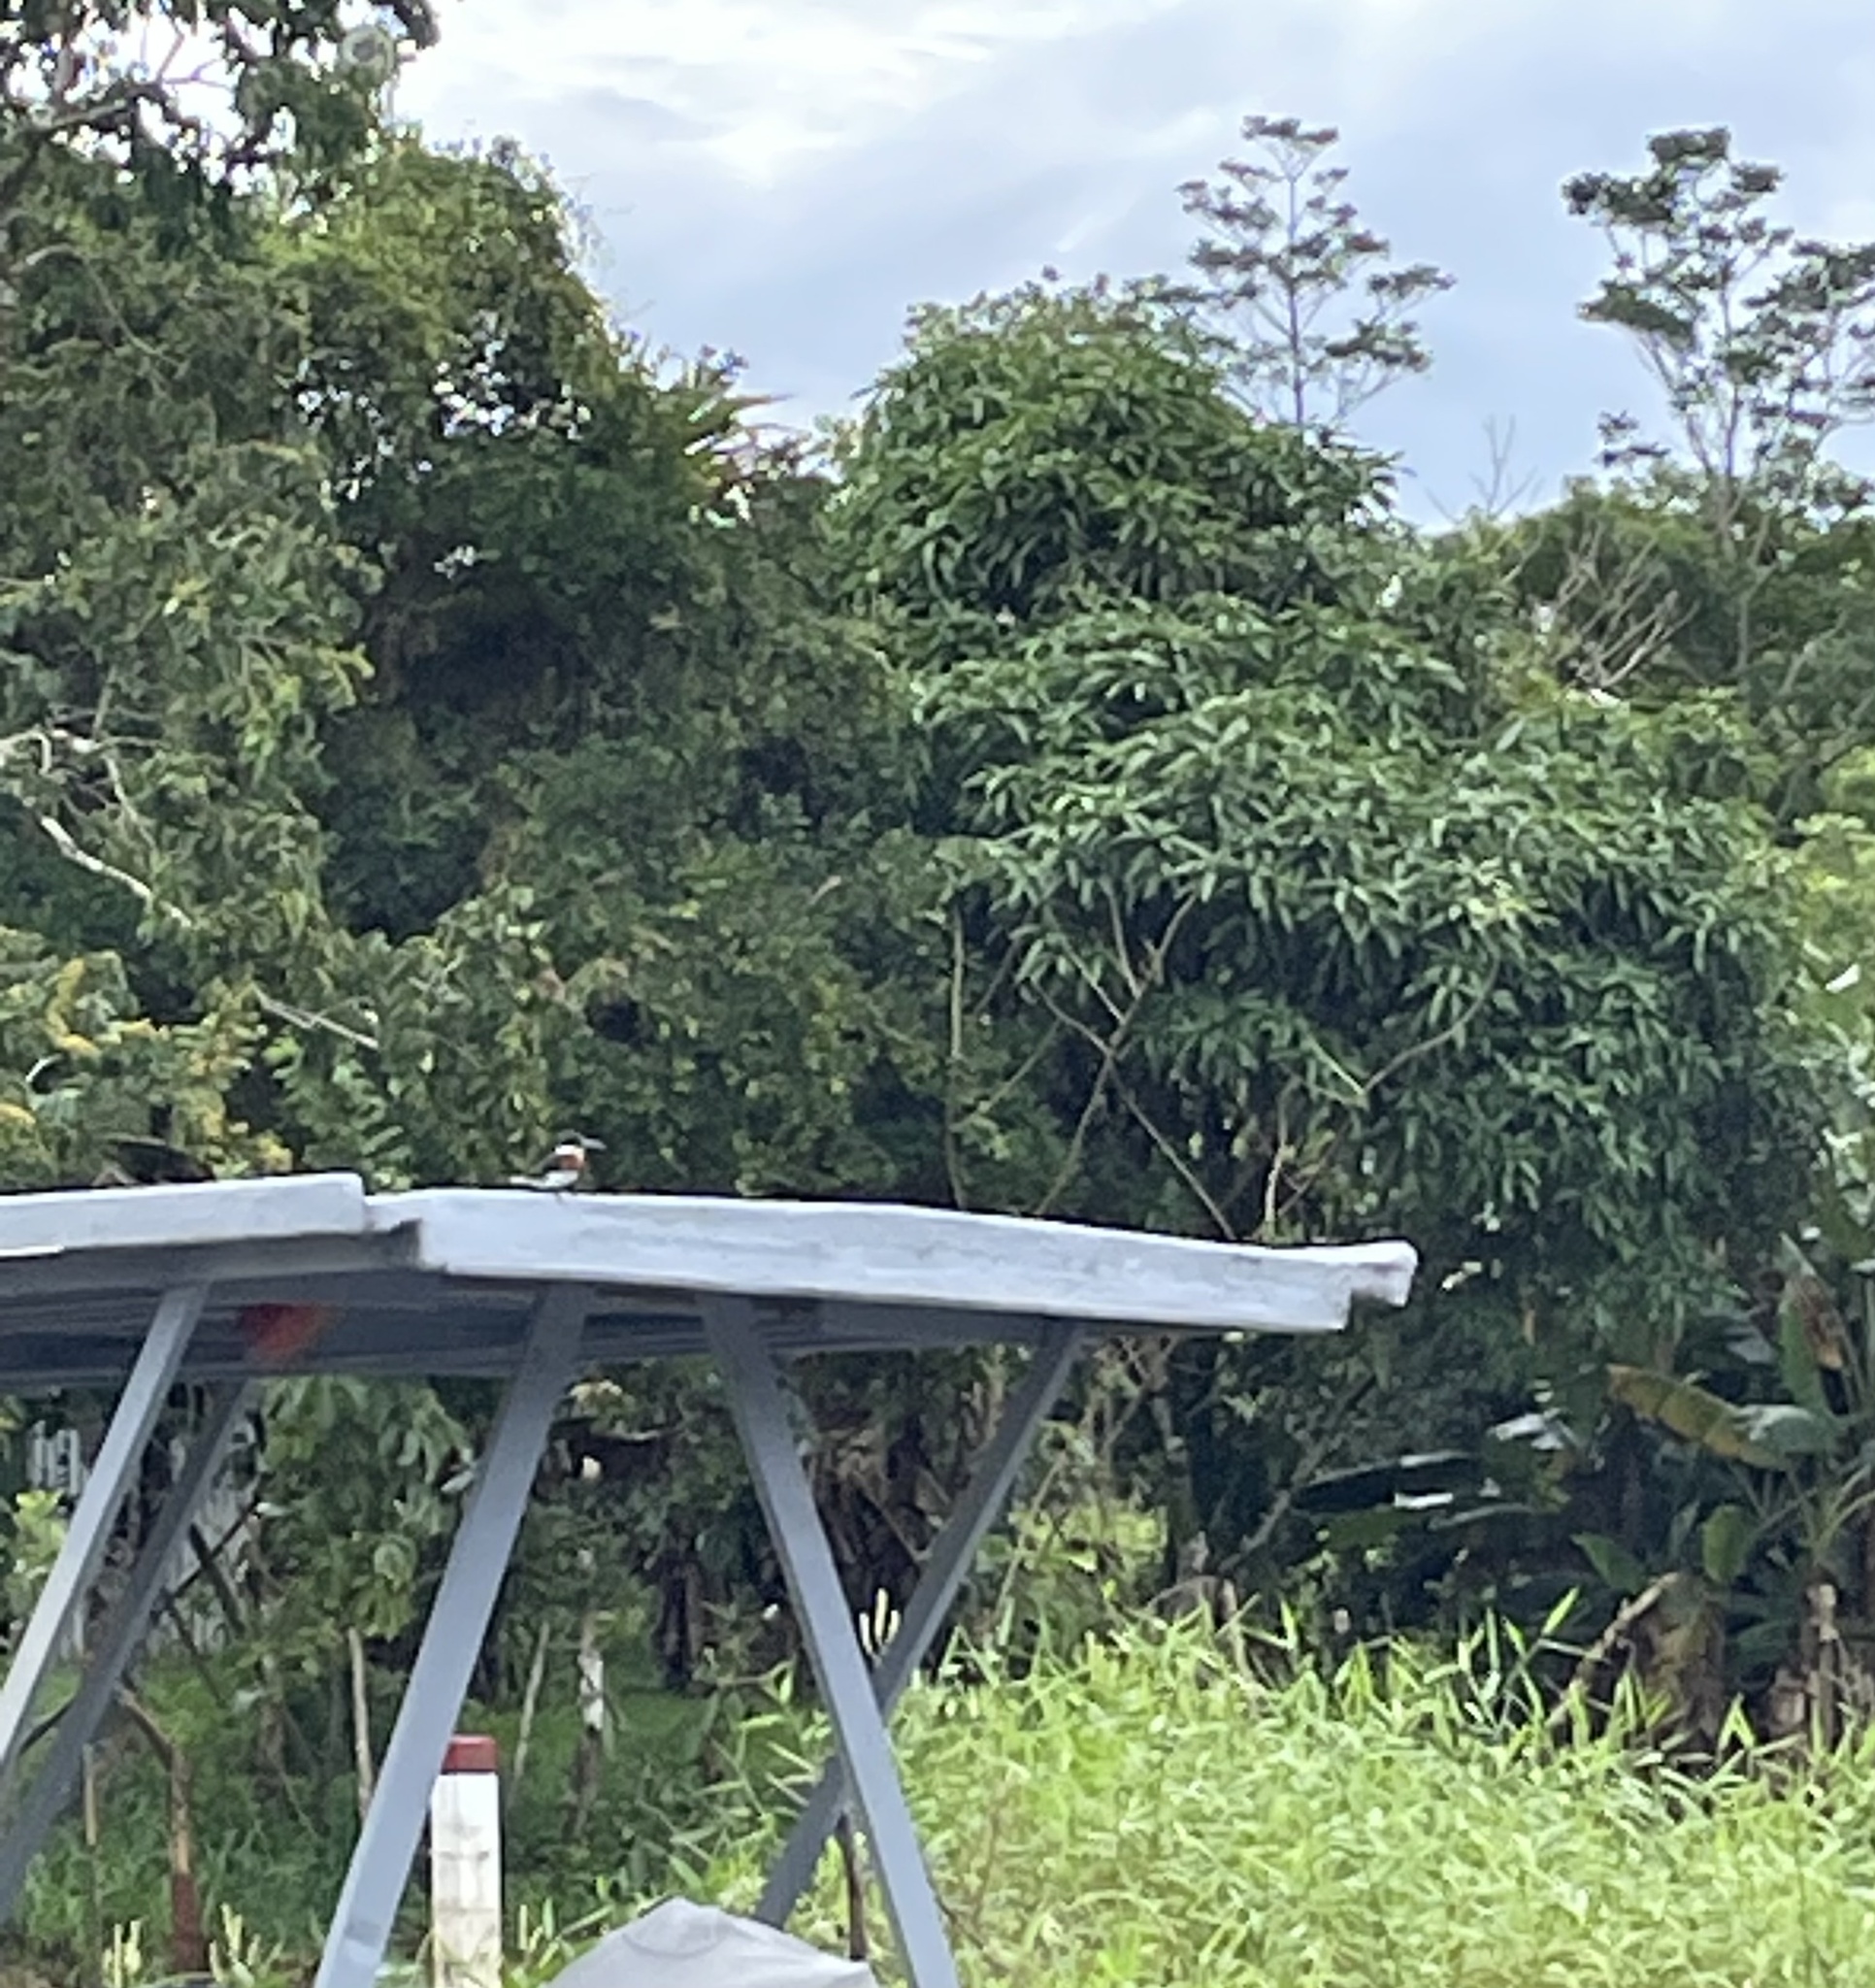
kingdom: Animalia
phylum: Chordata
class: Aves
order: Coraciiformes
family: Alcedinidae
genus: Chloroceryle
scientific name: Chloroceryle americana
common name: Green kingfisher
